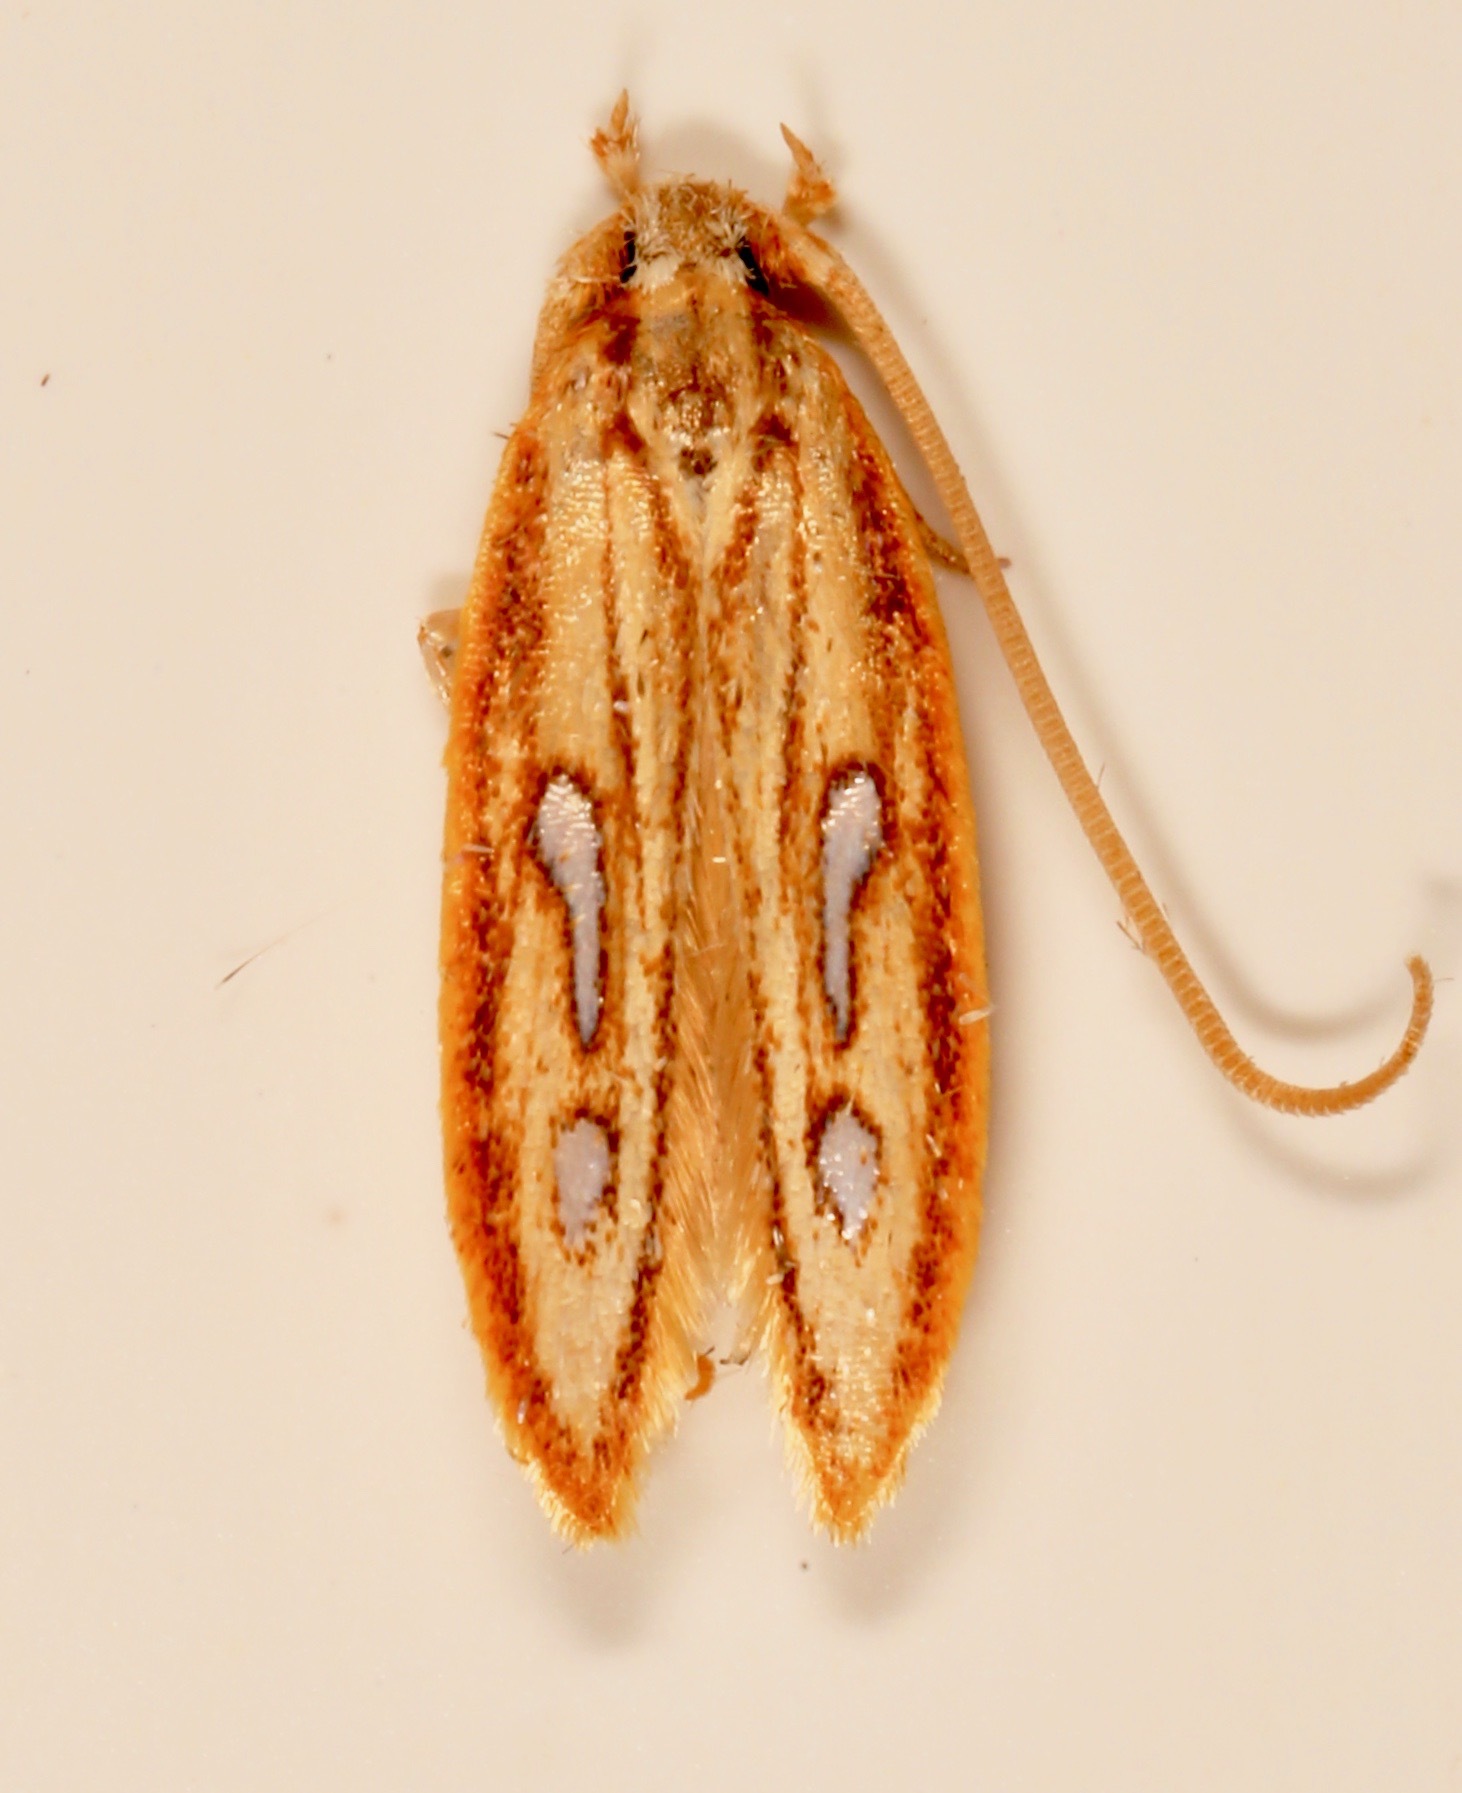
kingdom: Animalia
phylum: Arthropoda
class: Insecta
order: Lepidoptera
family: Coleophoridae
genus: Homaledra
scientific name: Homaledra heptathalama
